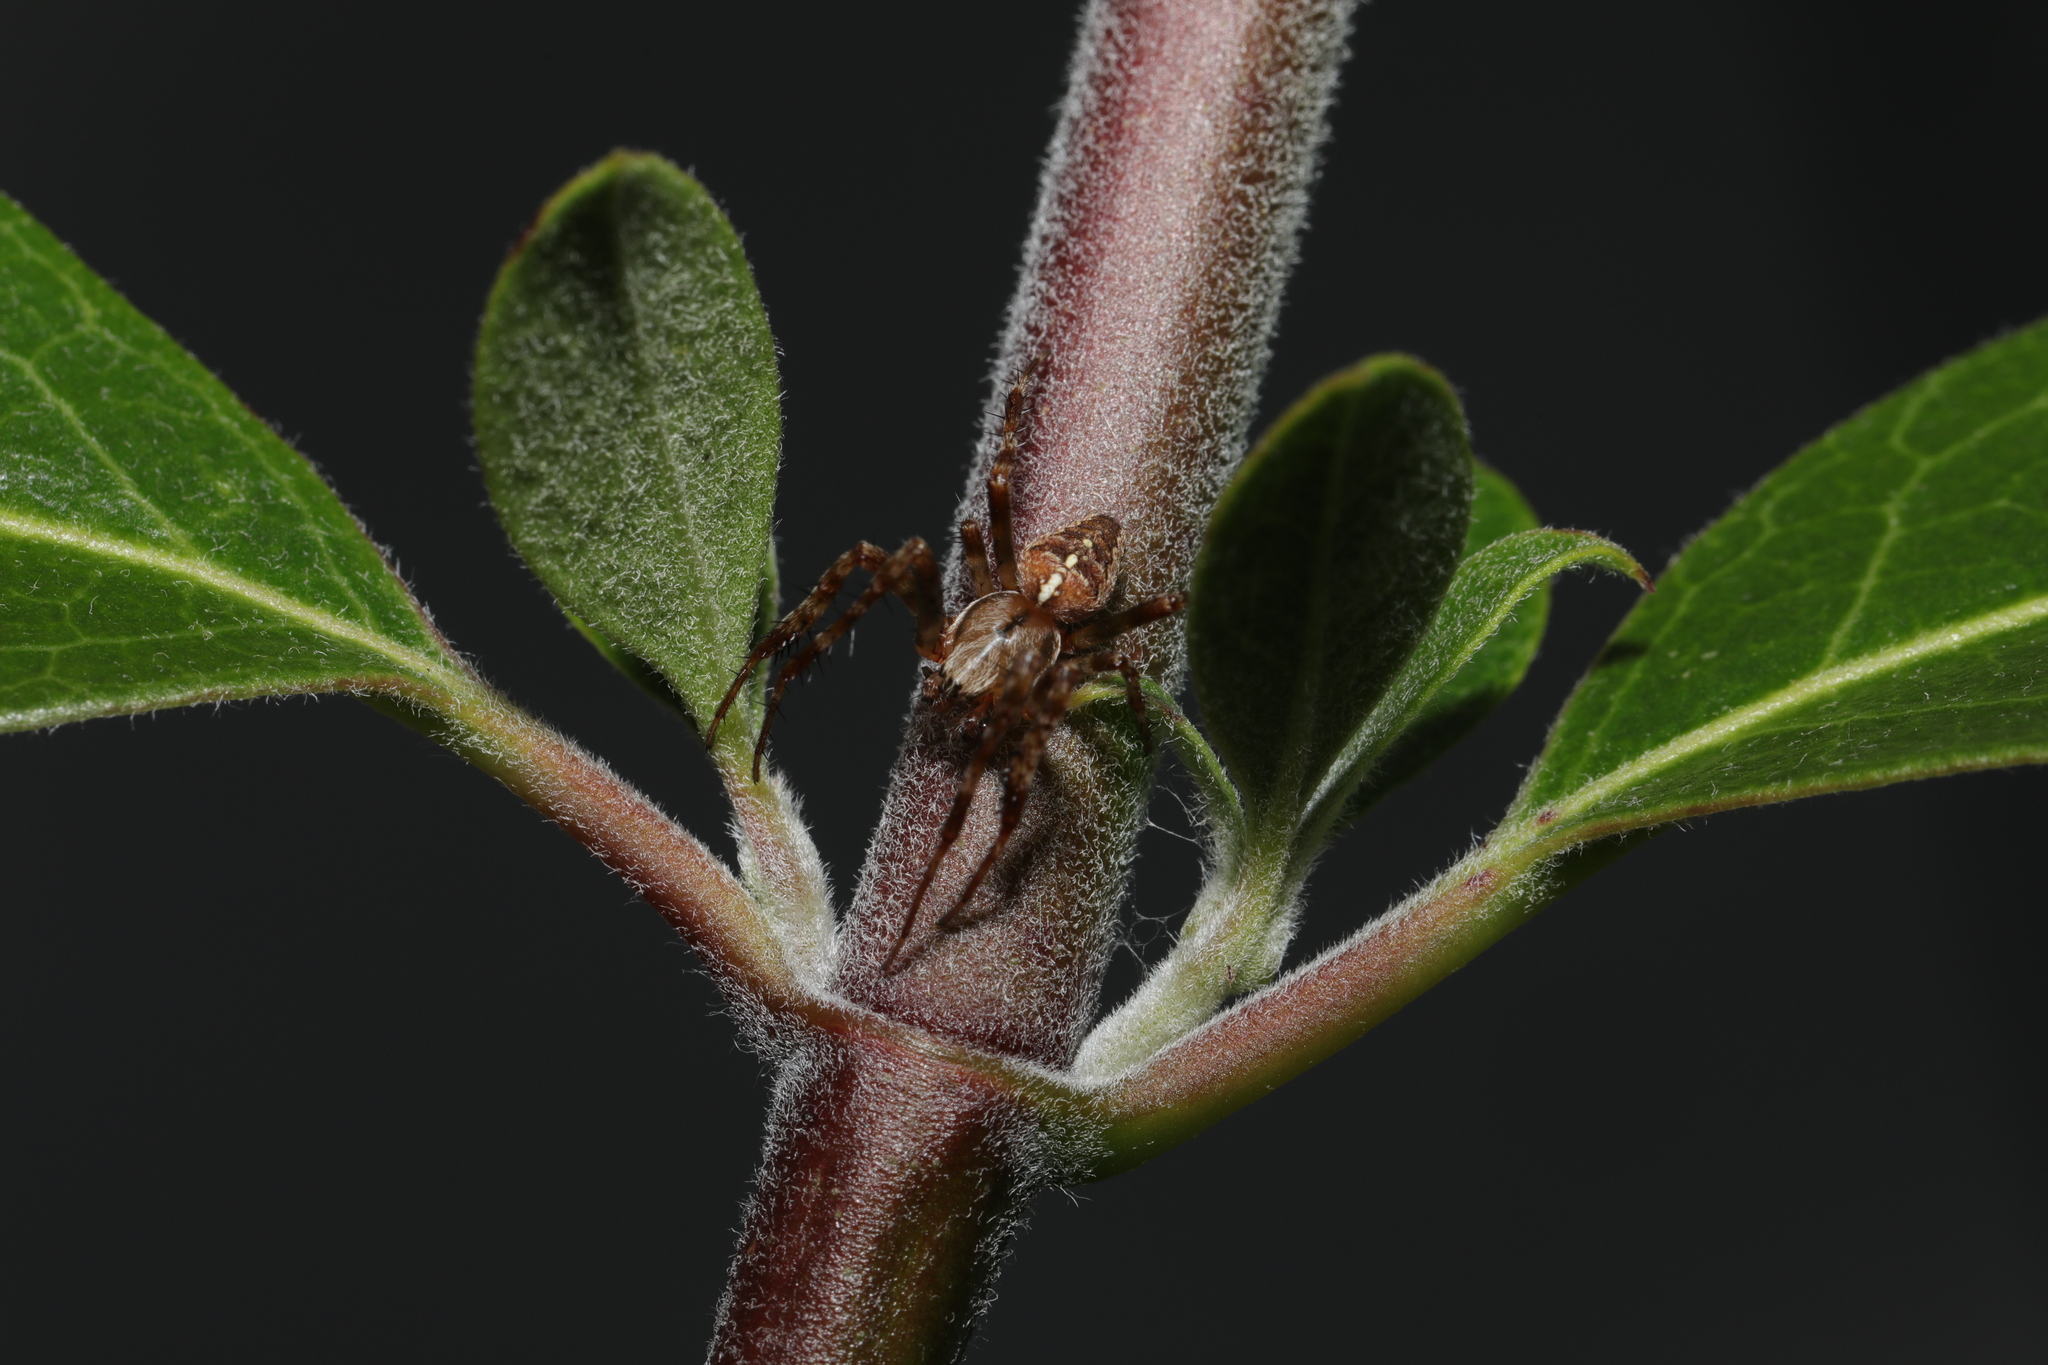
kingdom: Animalia
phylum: Arthropoda
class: Arachnida
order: Araneae
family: Araneidae
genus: Araneus
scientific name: Araneus diadematus
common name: Cross orbweaver
